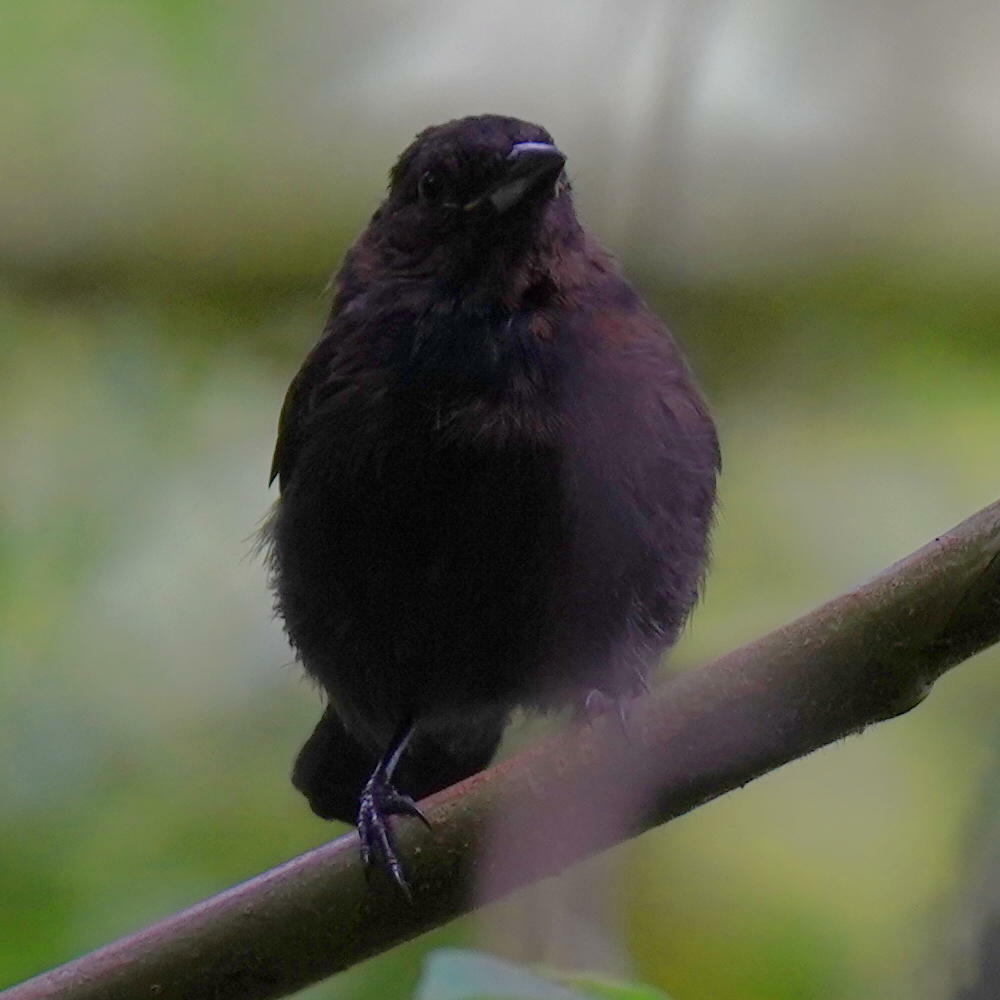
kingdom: Animalia
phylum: Chordata
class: Aves
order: Passeriformes
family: Thraupidae
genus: Tachyphonus
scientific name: Tachyphonus delatrii
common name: Tawny-crested tanager
